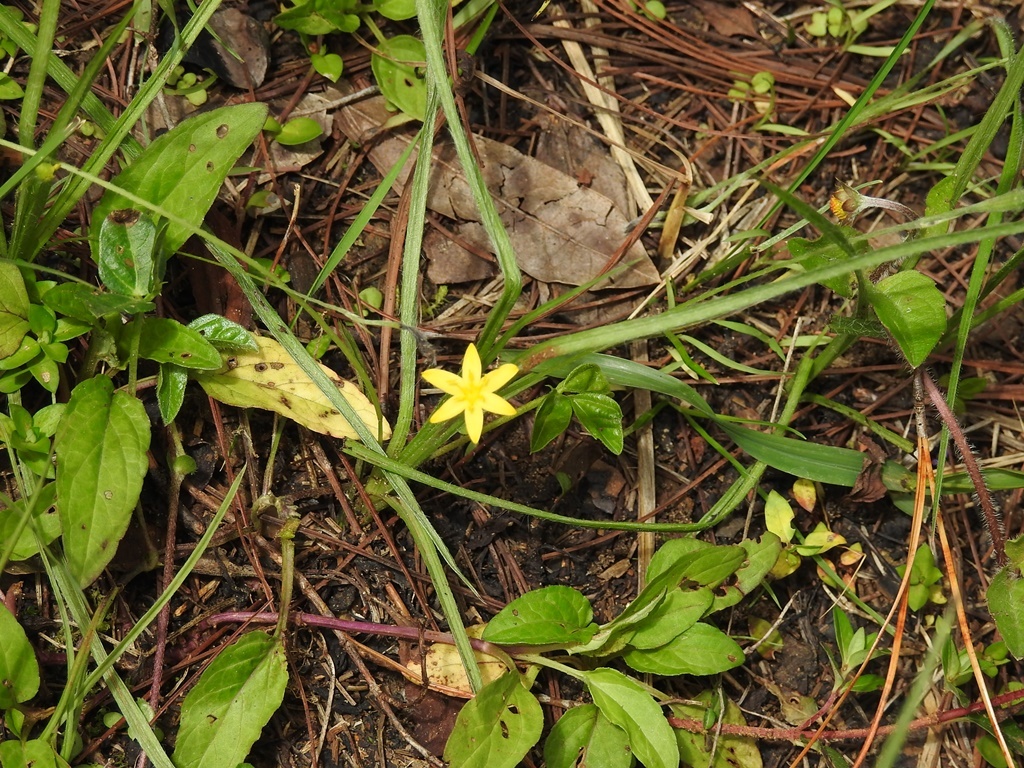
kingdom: Plantae
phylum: Tracheophyta
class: Liliopsida
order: Asparagales
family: Hypoxidaceae
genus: Hypoxis
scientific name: Hypoxis decumbens
